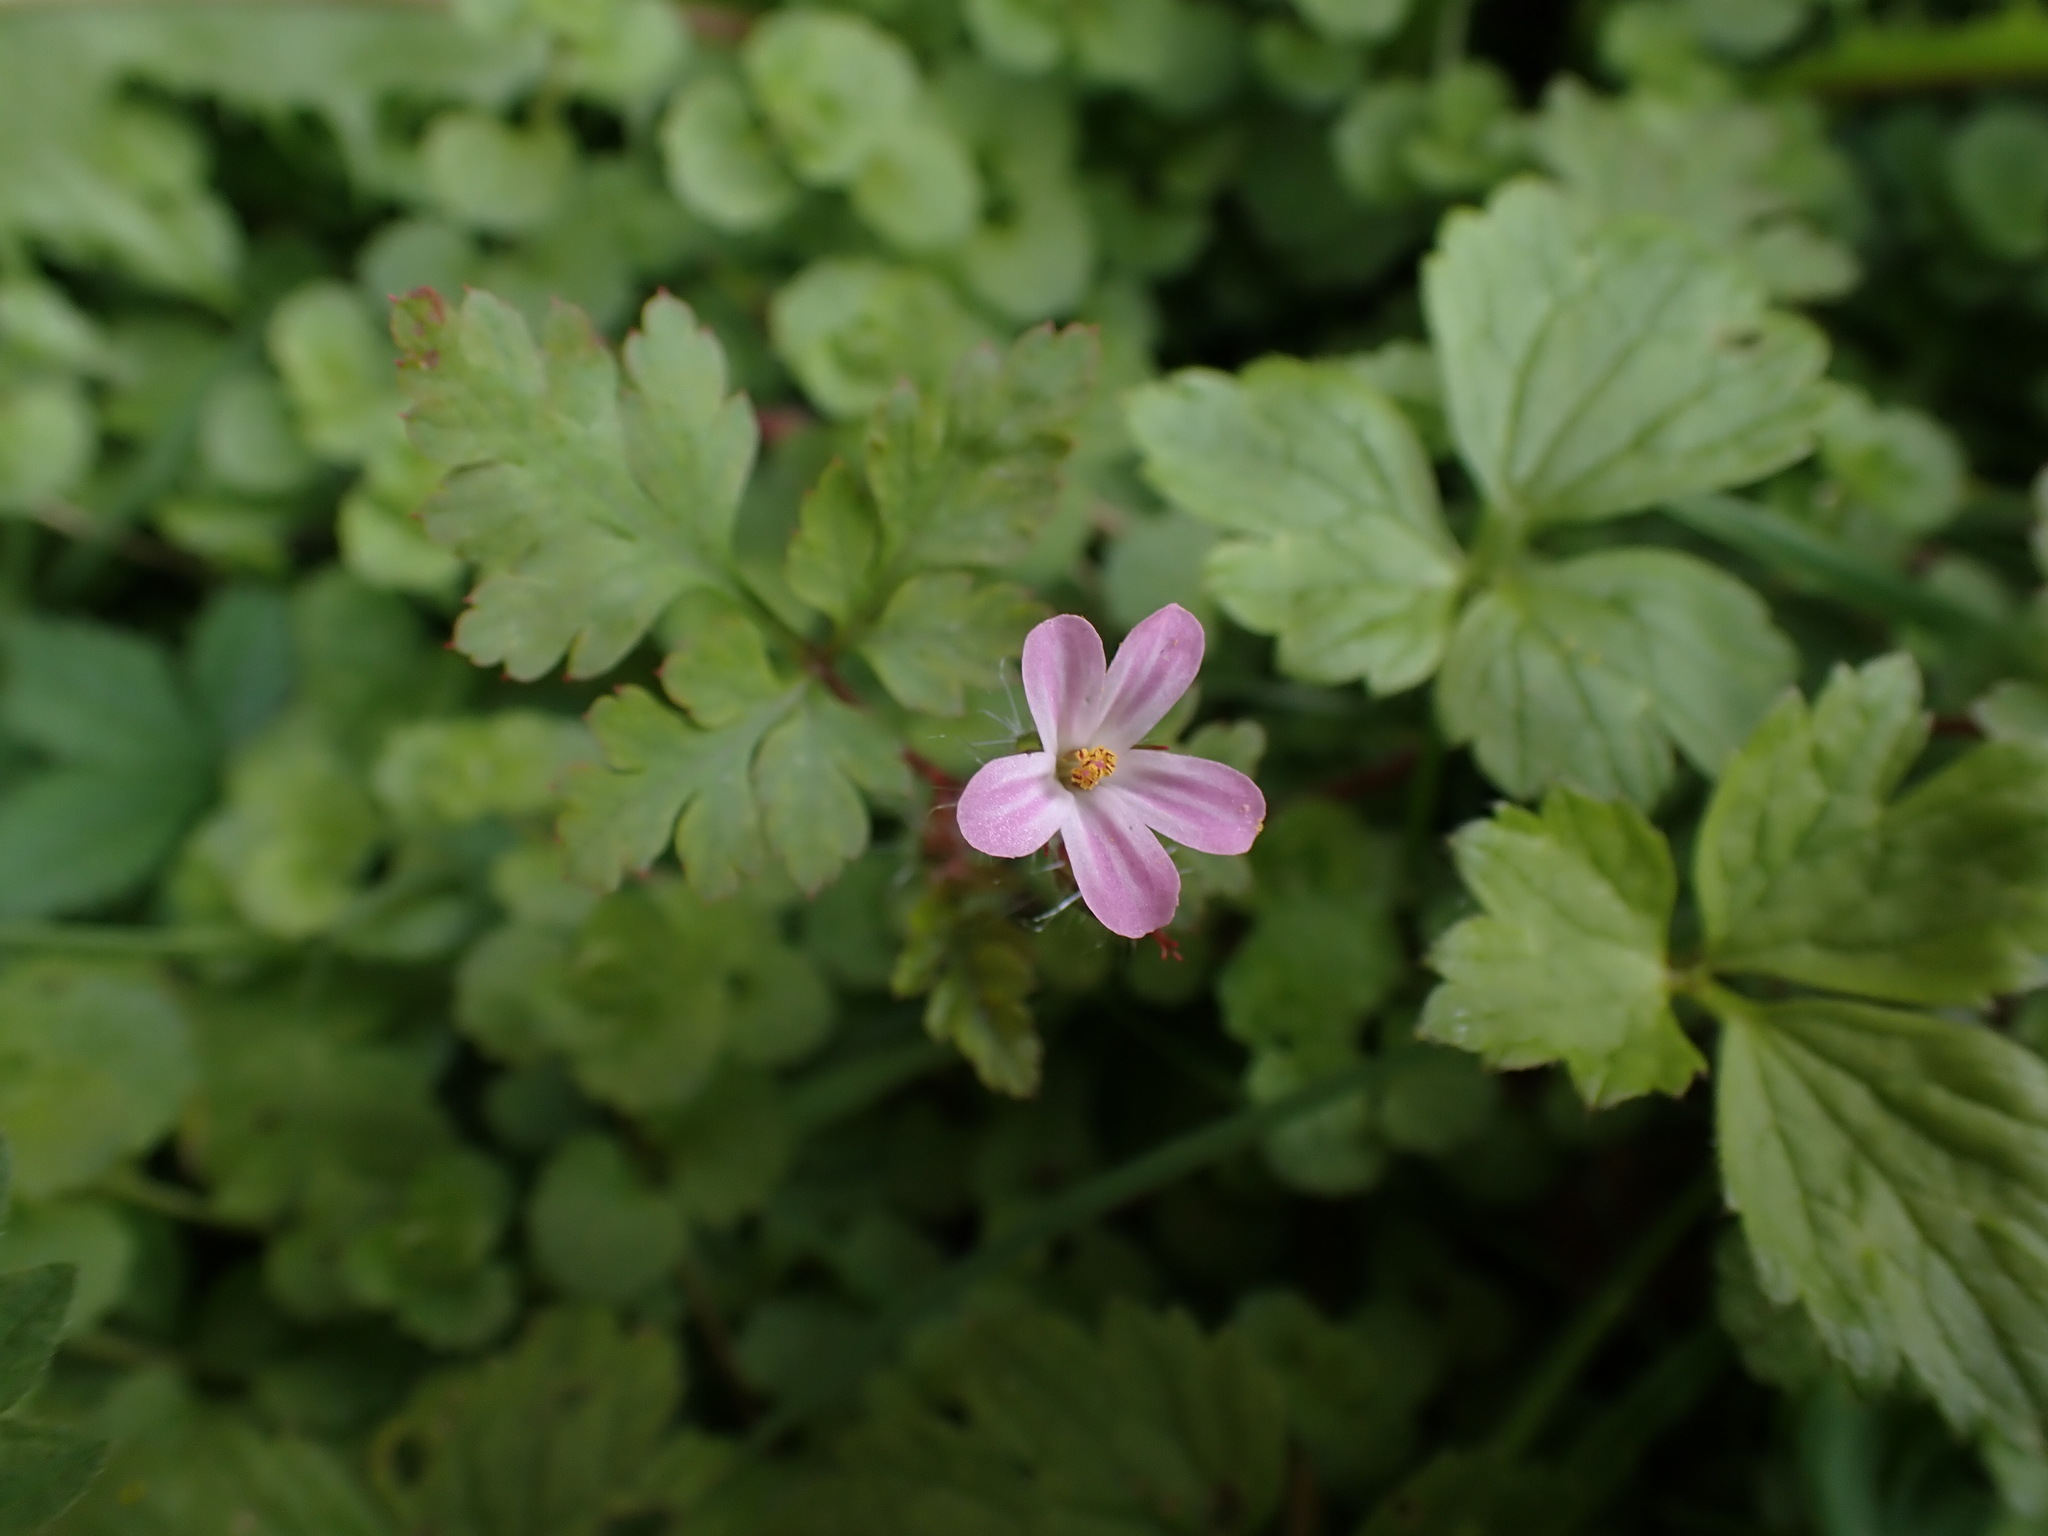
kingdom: Plantae
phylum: Tracheophyta
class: Magnoliopsida
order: Geraniales
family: Geraniaceae
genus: Geranium
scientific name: Geranium robertianum
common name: Herb-robert
